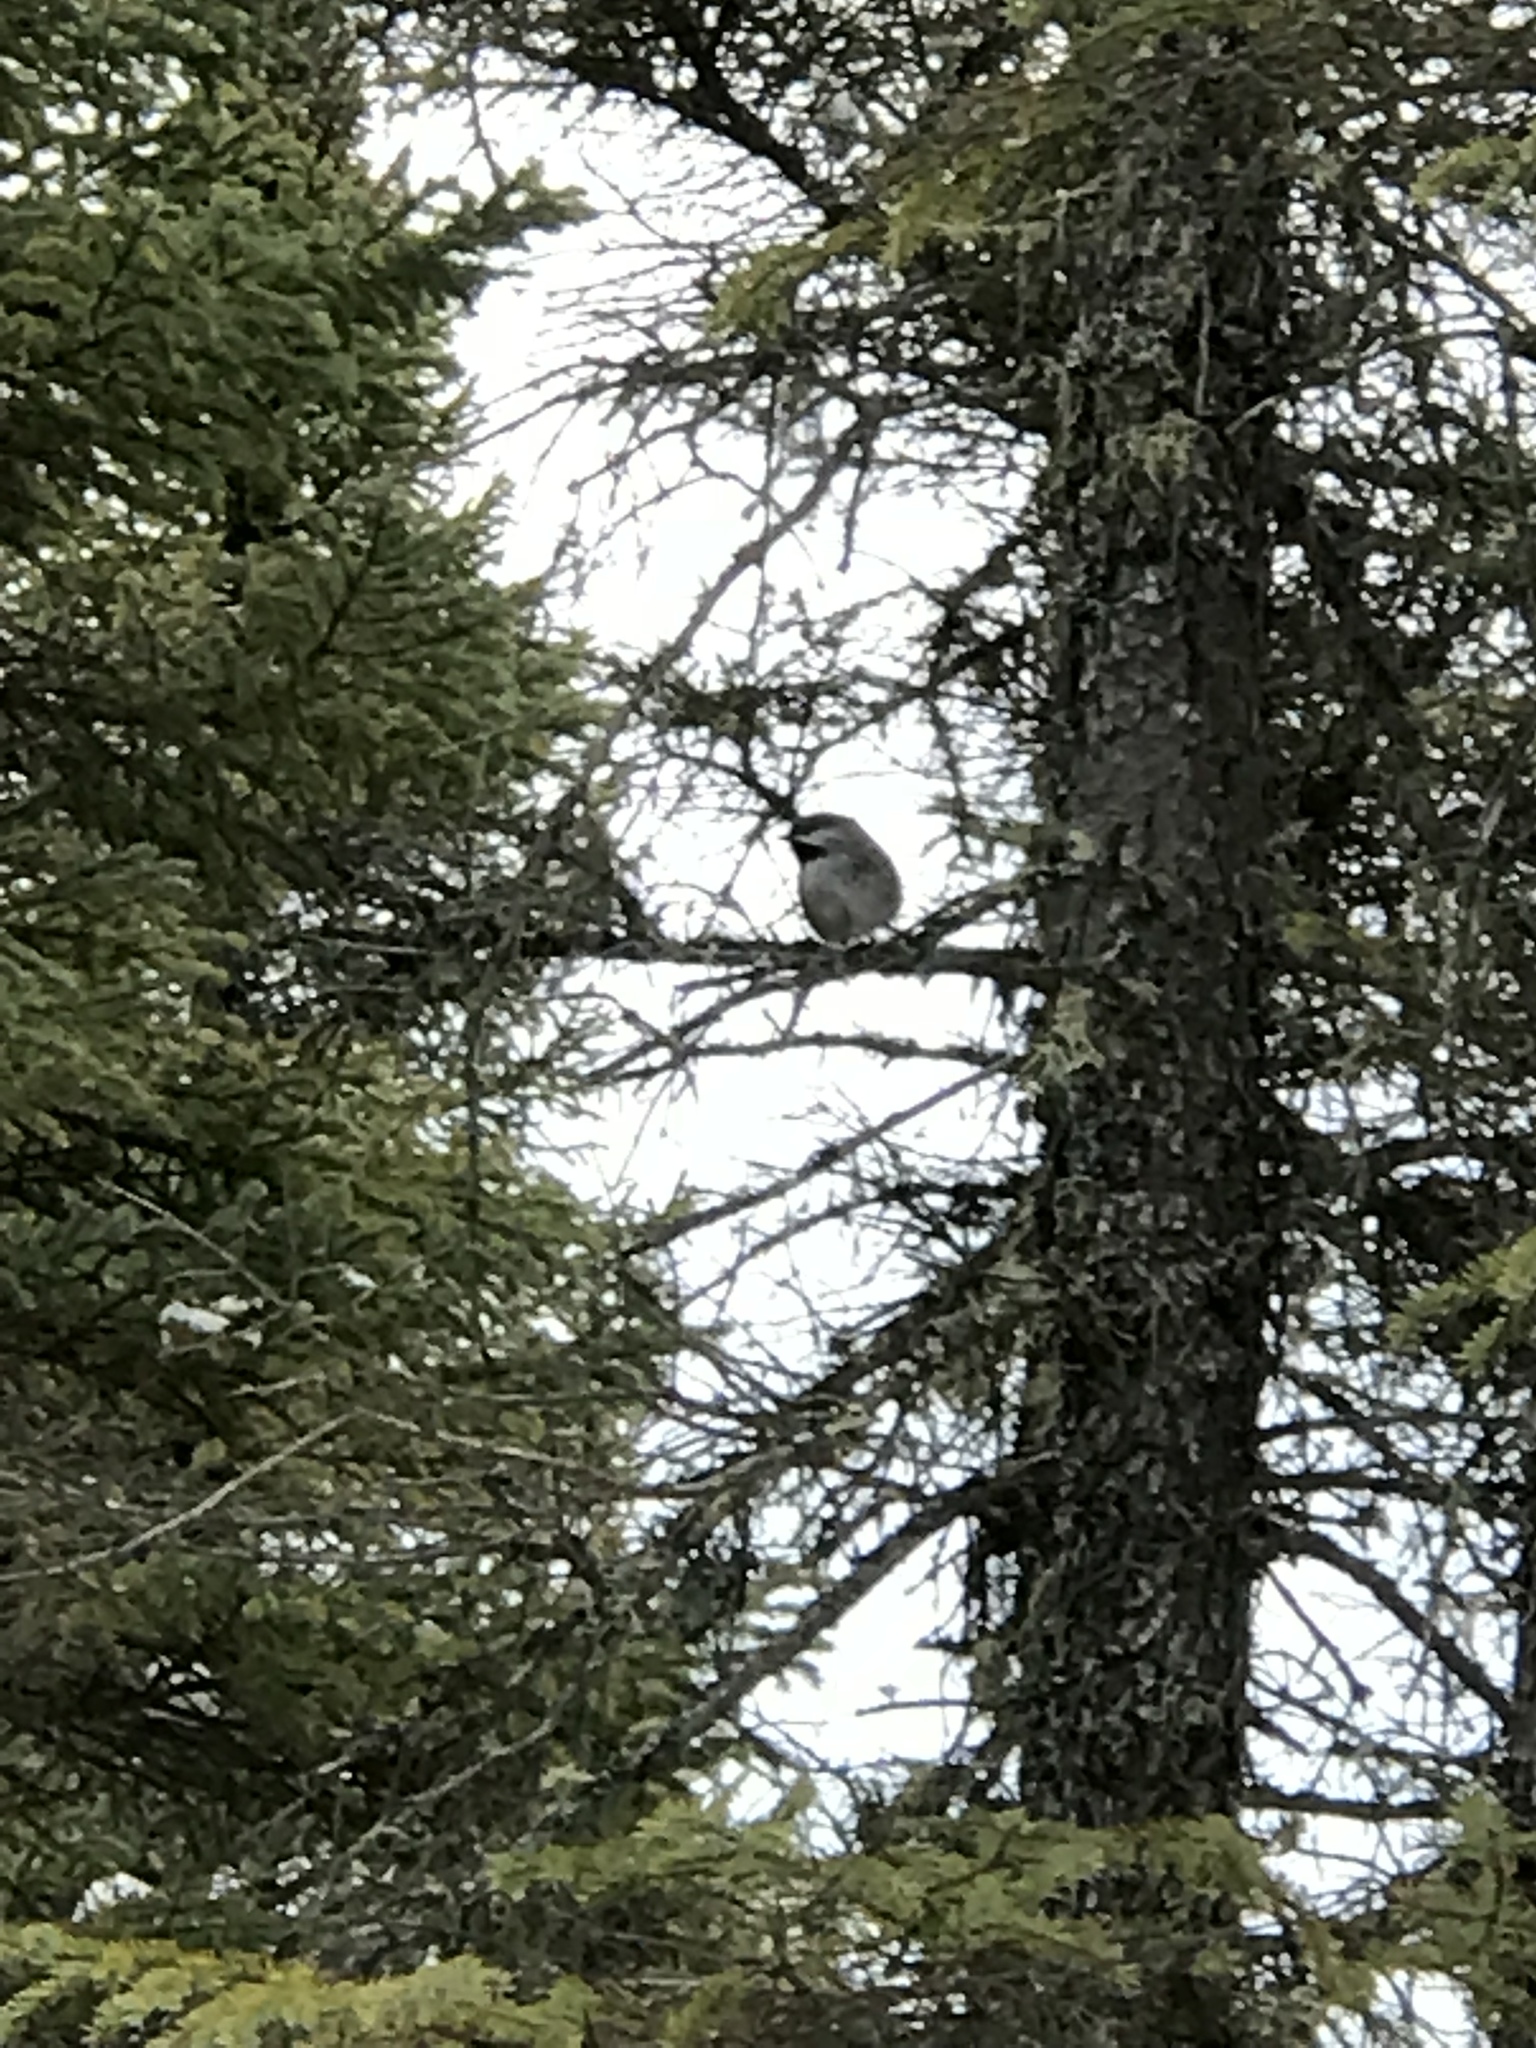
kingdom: Animalia
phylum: Chordata
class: Aves
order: Passeriformes
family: Paridae
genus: Poecile
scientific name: Poecile hudsonicus
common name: Boreal chickadee
